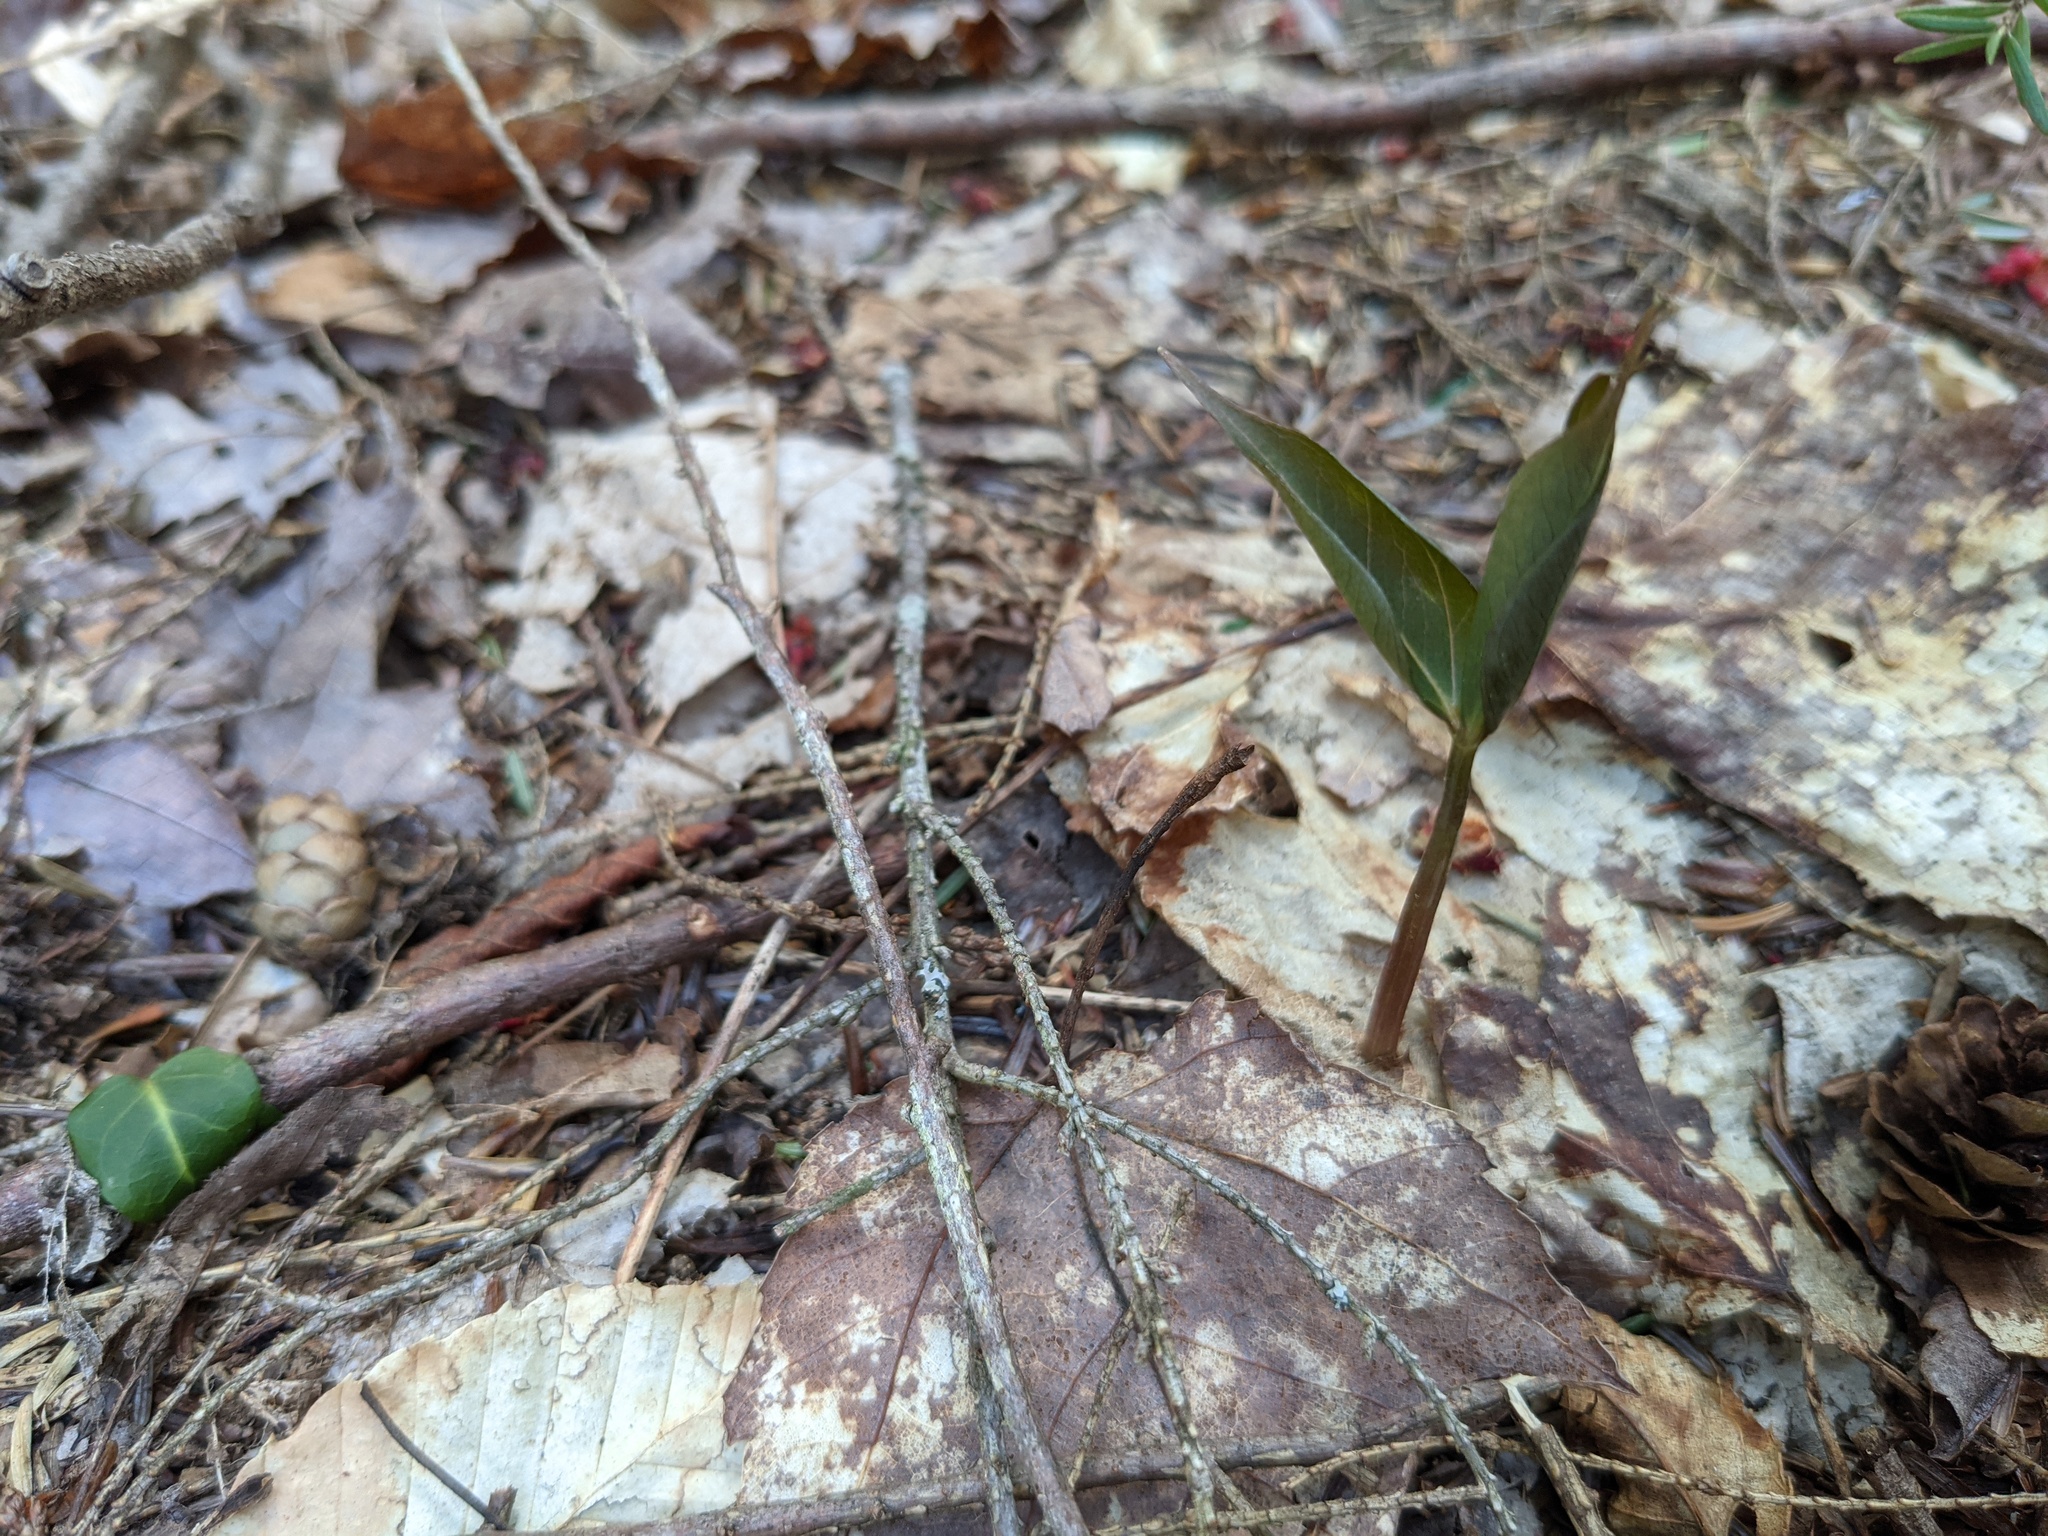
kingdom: Plantae
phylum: Tracheophyta
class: Liliopsida
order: Liliales
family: Melanthiaceae
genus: Trillium
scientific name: Trillium undulatum
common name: Paint trillium
